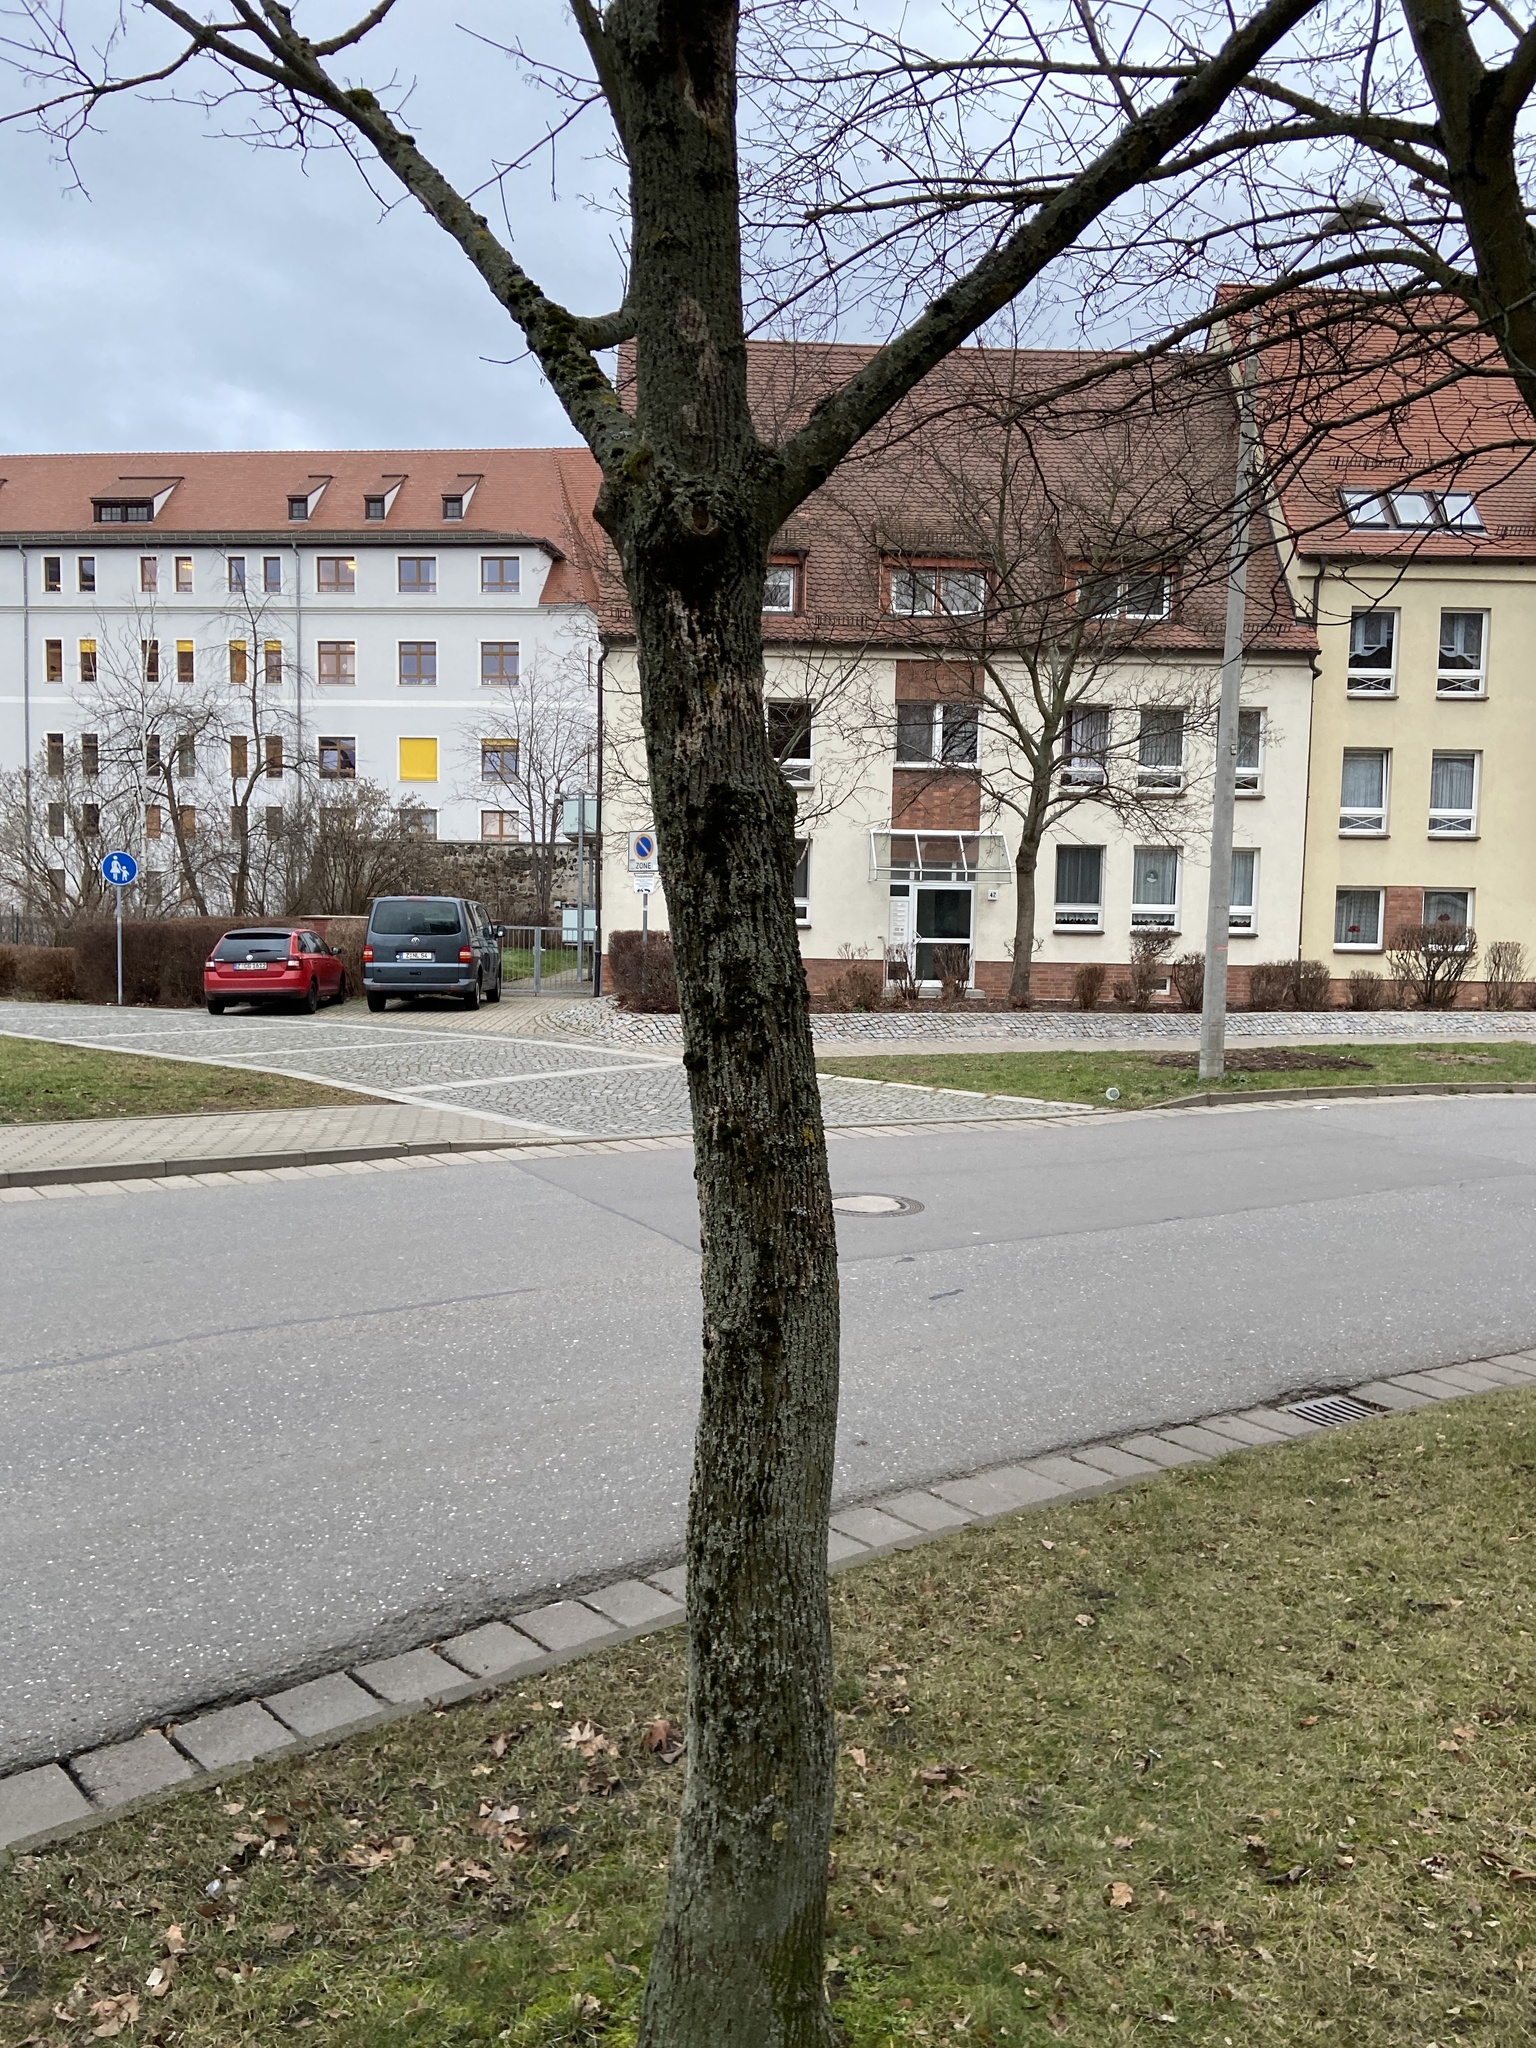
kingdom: Fungi
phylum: Basidiomycota
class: Agaricomycetes
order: Atheliales
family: Atheliaceae
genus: Athelia
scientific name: Athelia arachnoidea
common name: Candelabra duster
